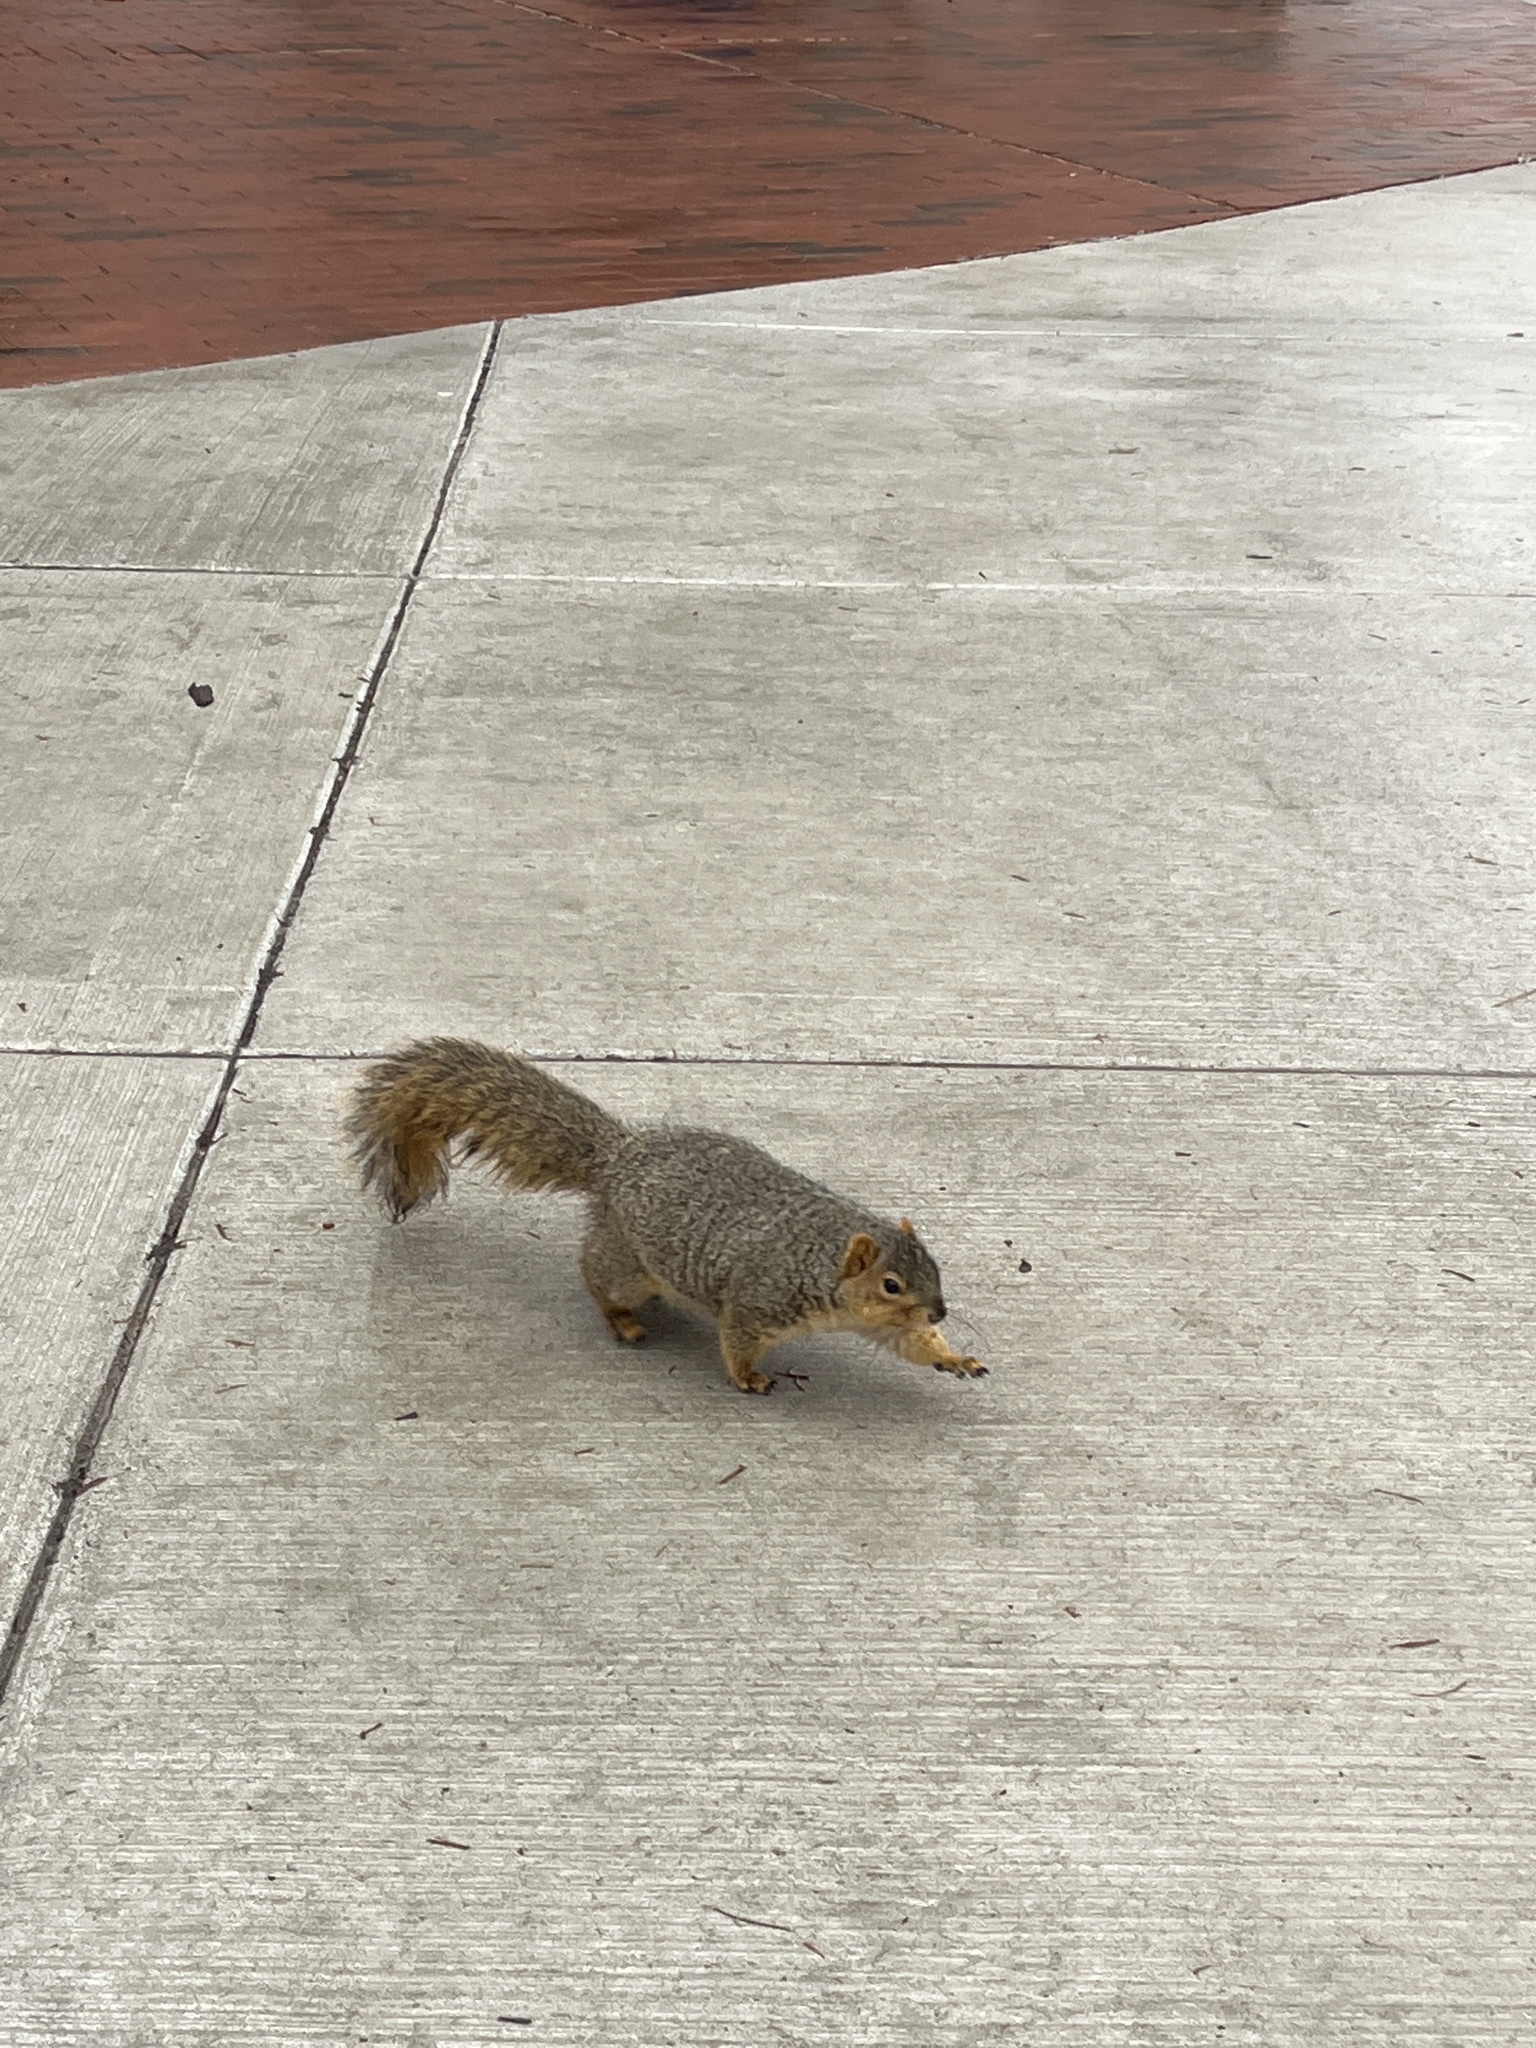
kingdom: Animalia
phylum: Chordata
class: Mammalia
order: Rodentia
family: Sciuridae
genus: Sciurus
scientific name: Sciurus niger
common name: Fox squirrel
